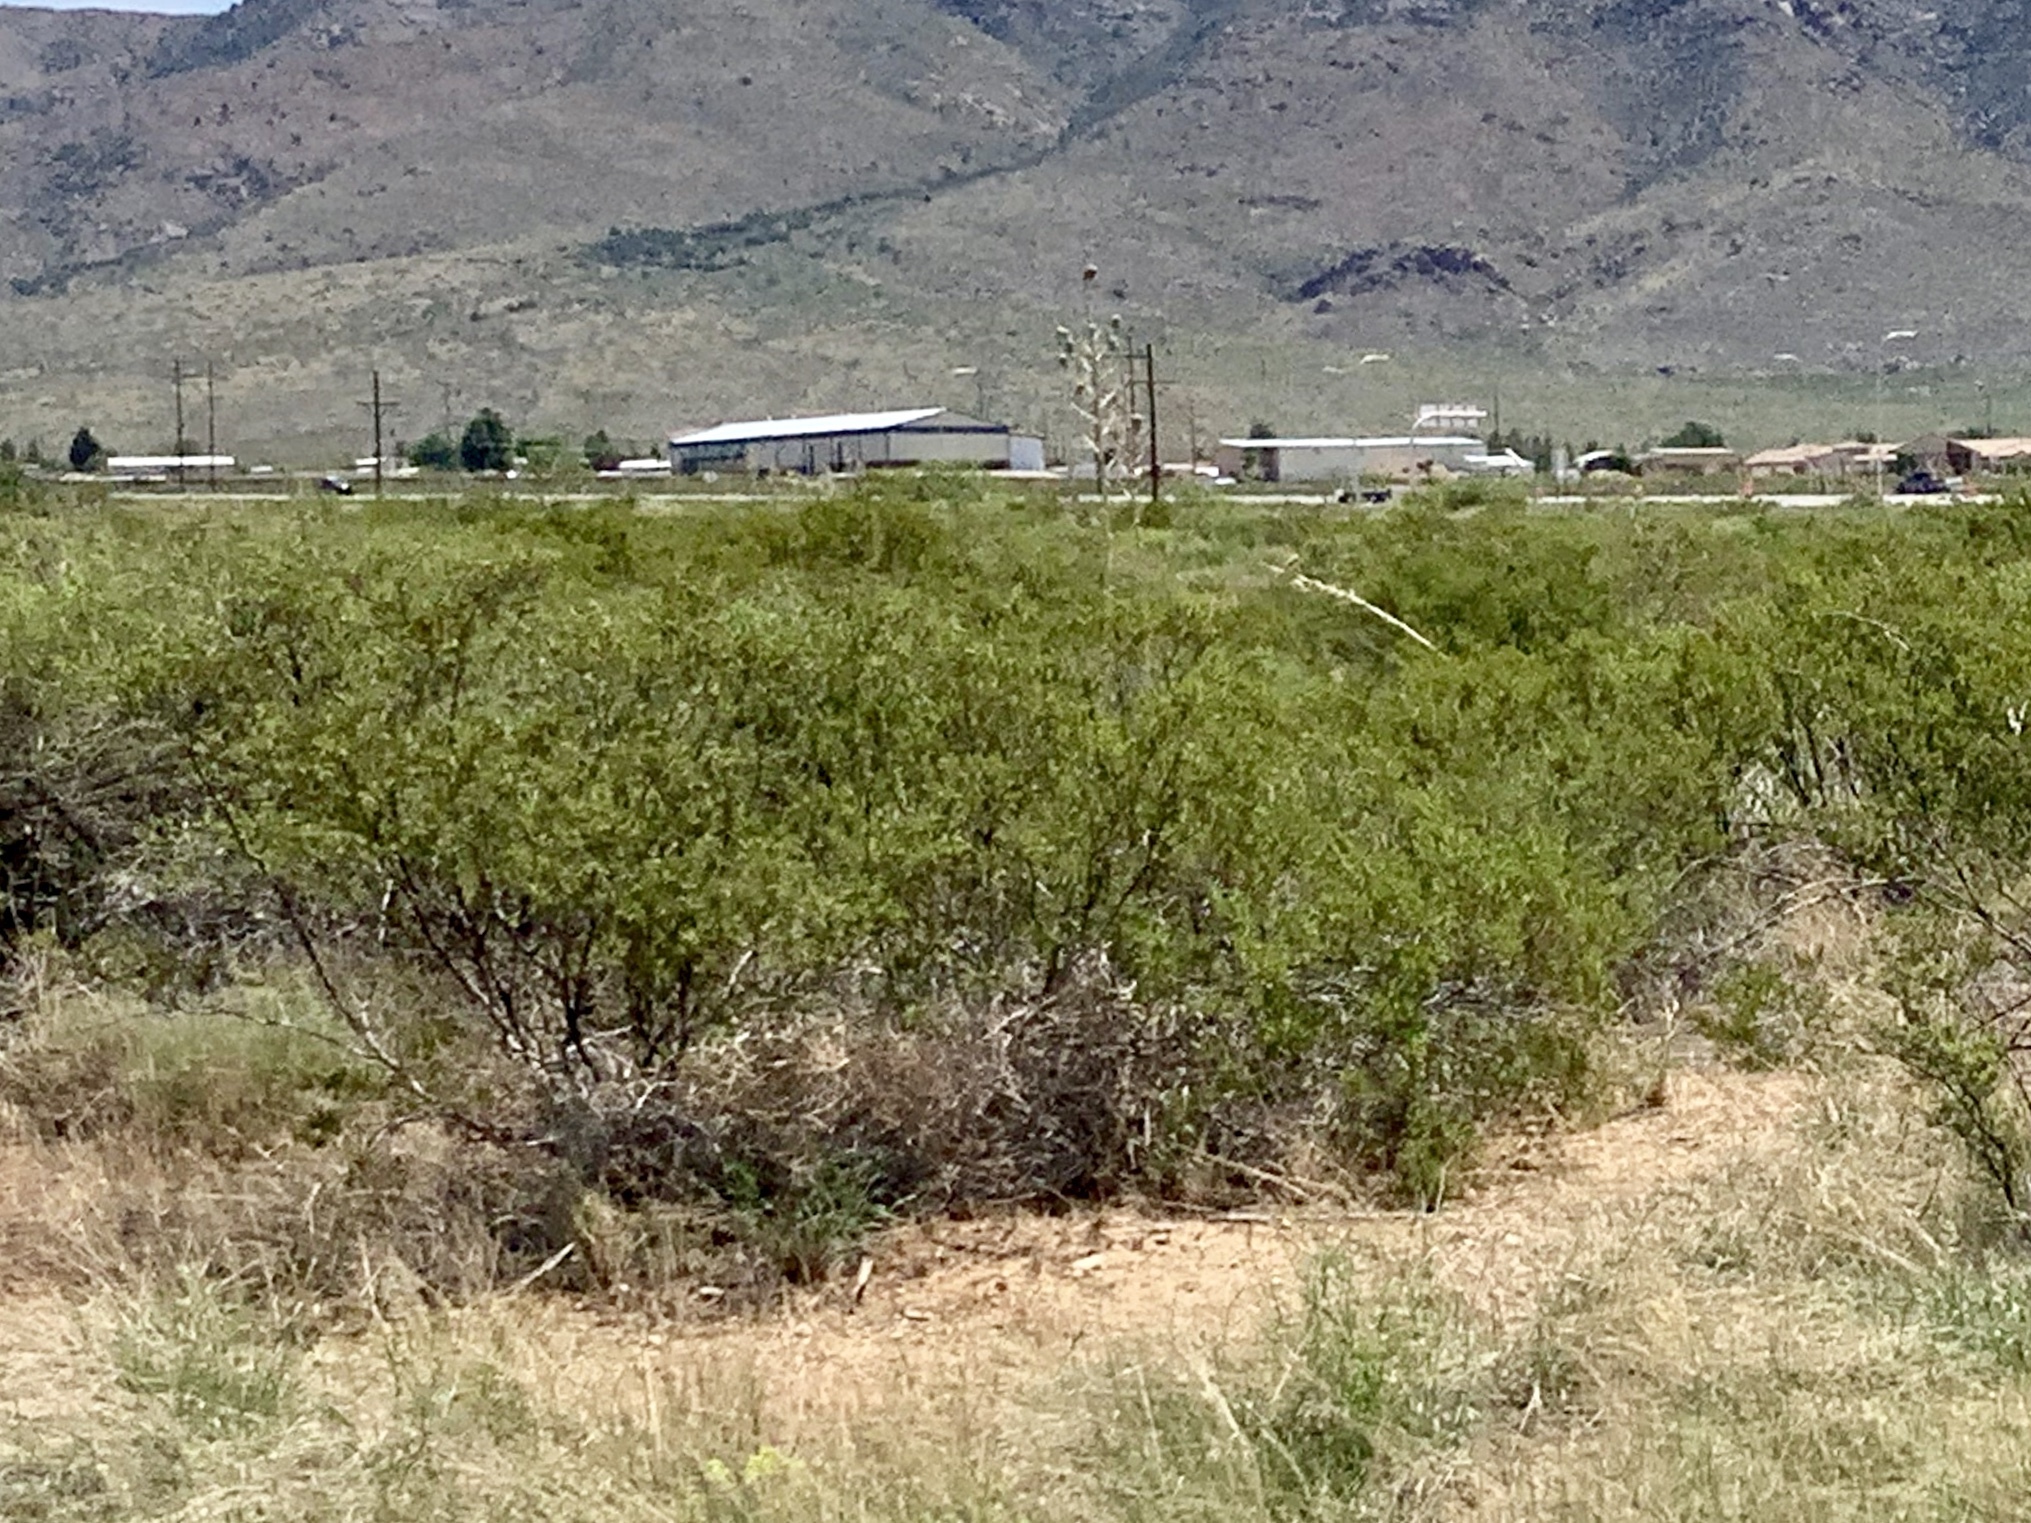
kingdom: Plantae
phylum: Tracheophyta
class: Magnoliopsida
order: Zygophyllales
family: Zygophyllaceae
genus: Larrea
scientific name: Larrea tridentata
